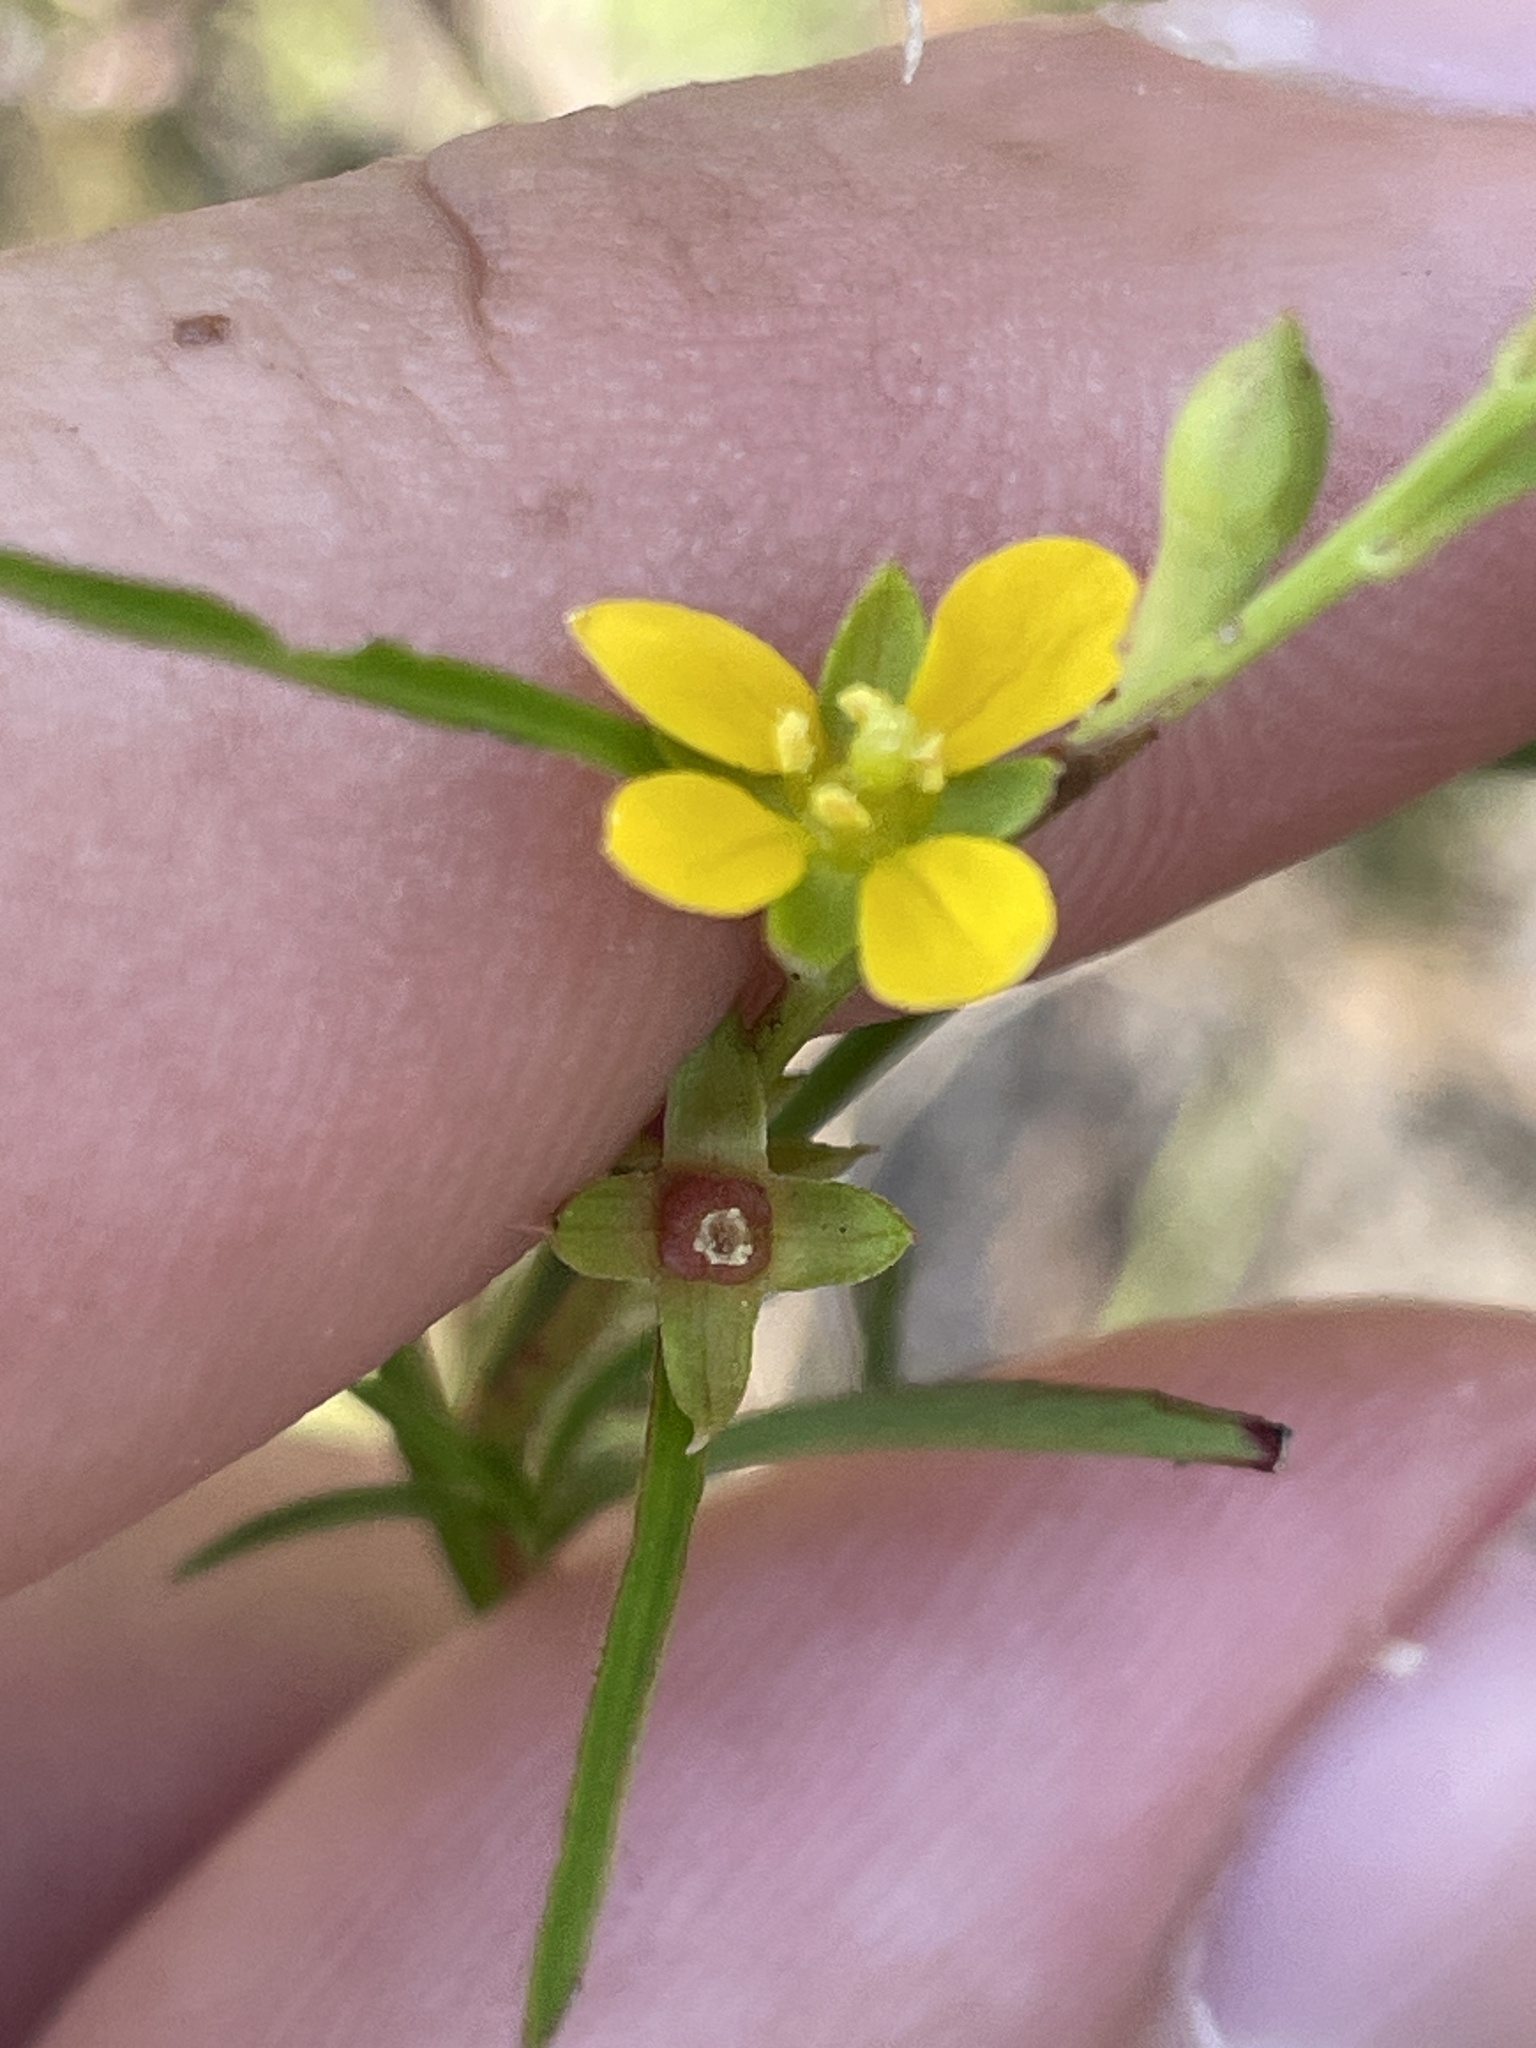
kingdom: Plantae
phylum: Tracheophyta
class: Magnoliopsida
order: Myrtales
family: Onagraceae
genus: Ludwigia
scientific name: Ludwigia linearis
